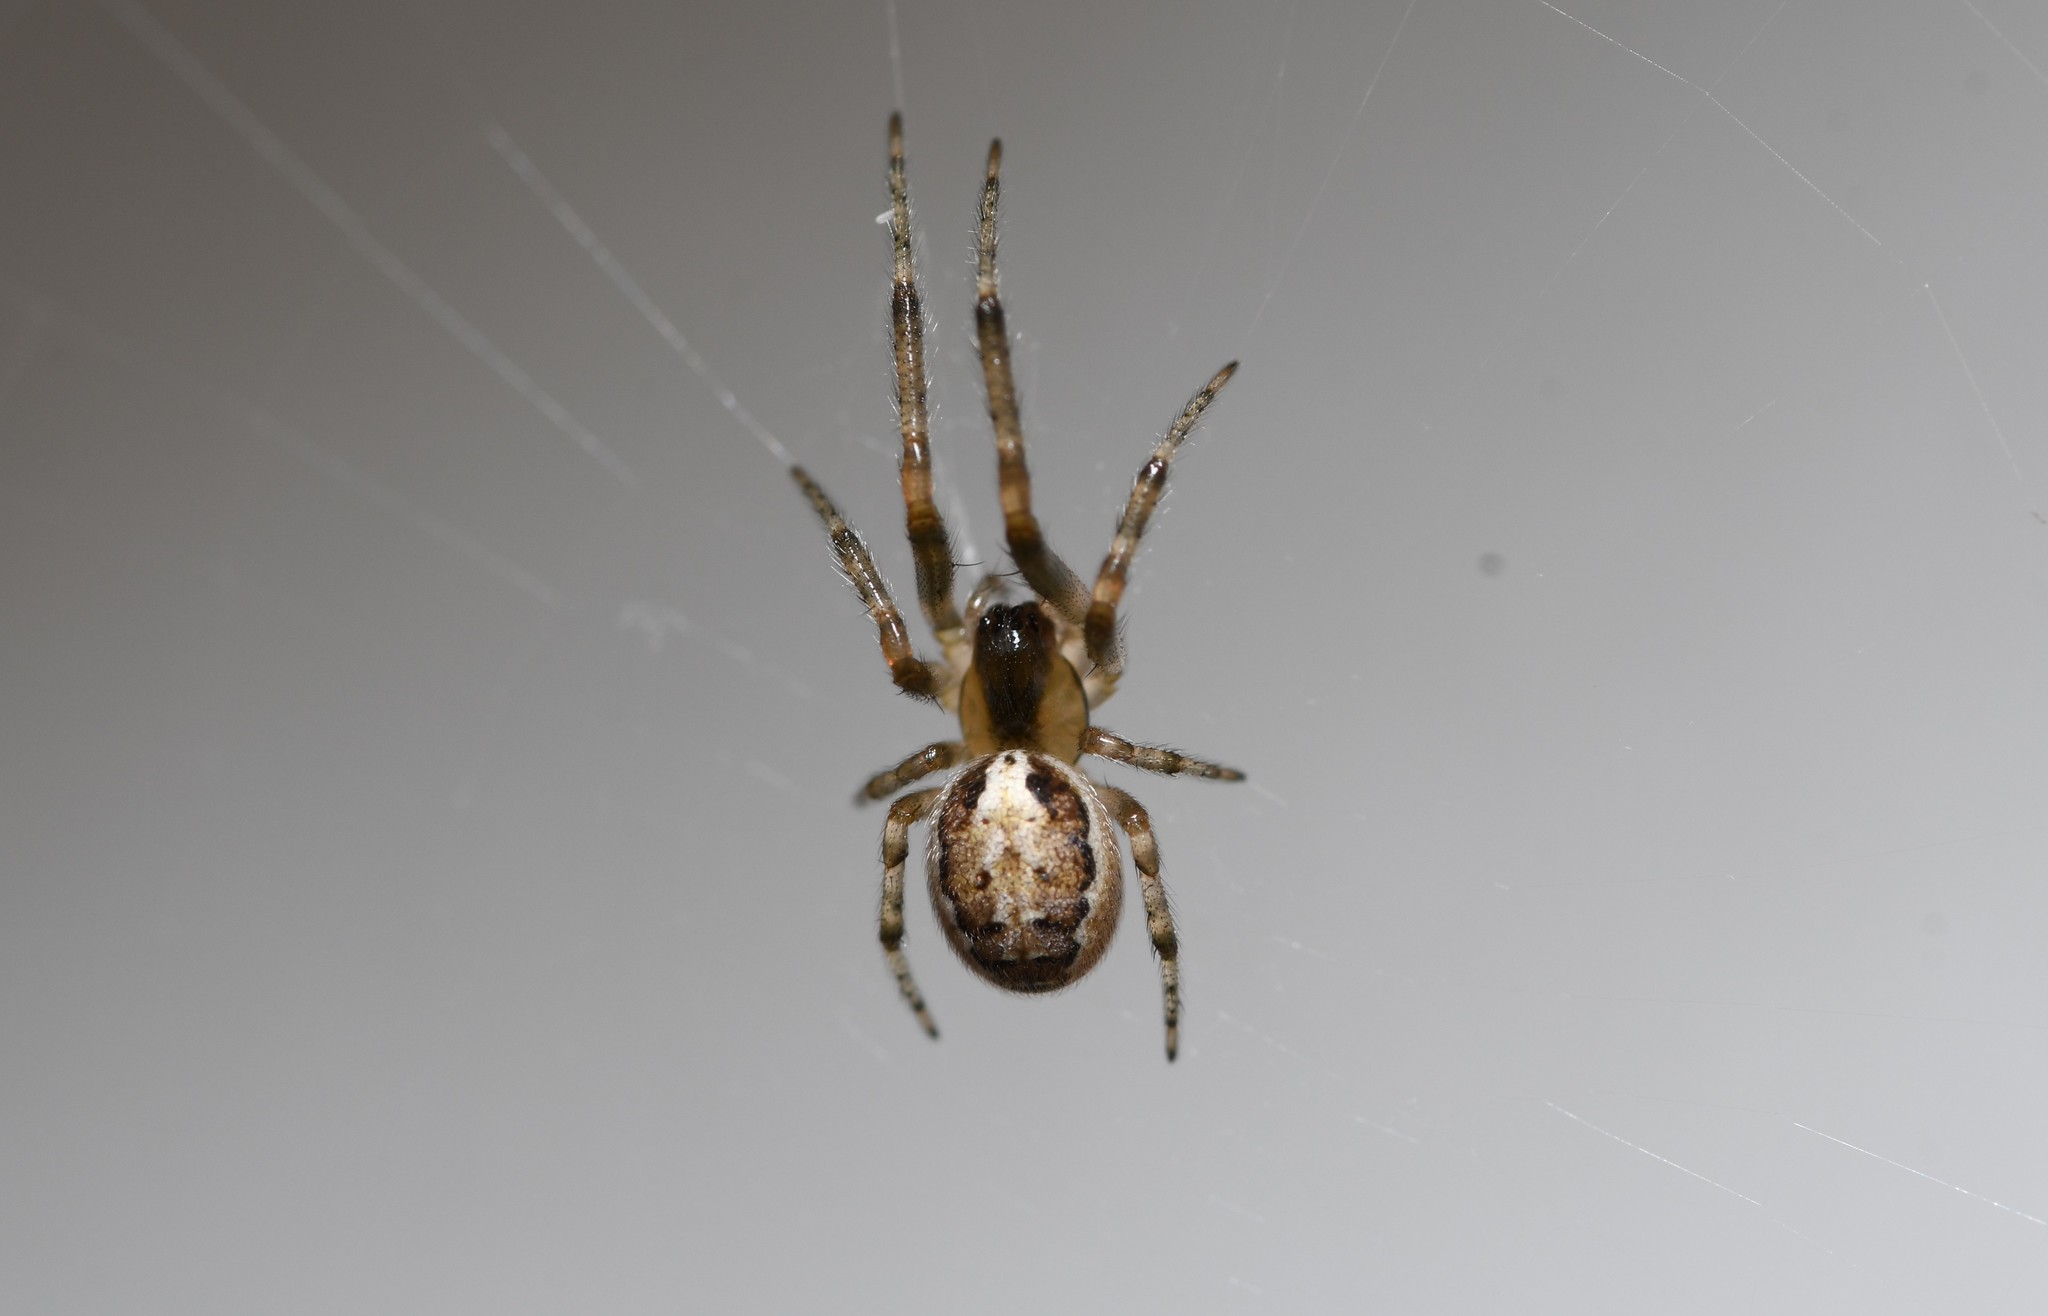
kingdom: Animalia
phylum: Arthropoda
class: Arachnida
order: Araneae
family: Araneidae
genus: Zygiella
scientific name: Zygiella x-notata
